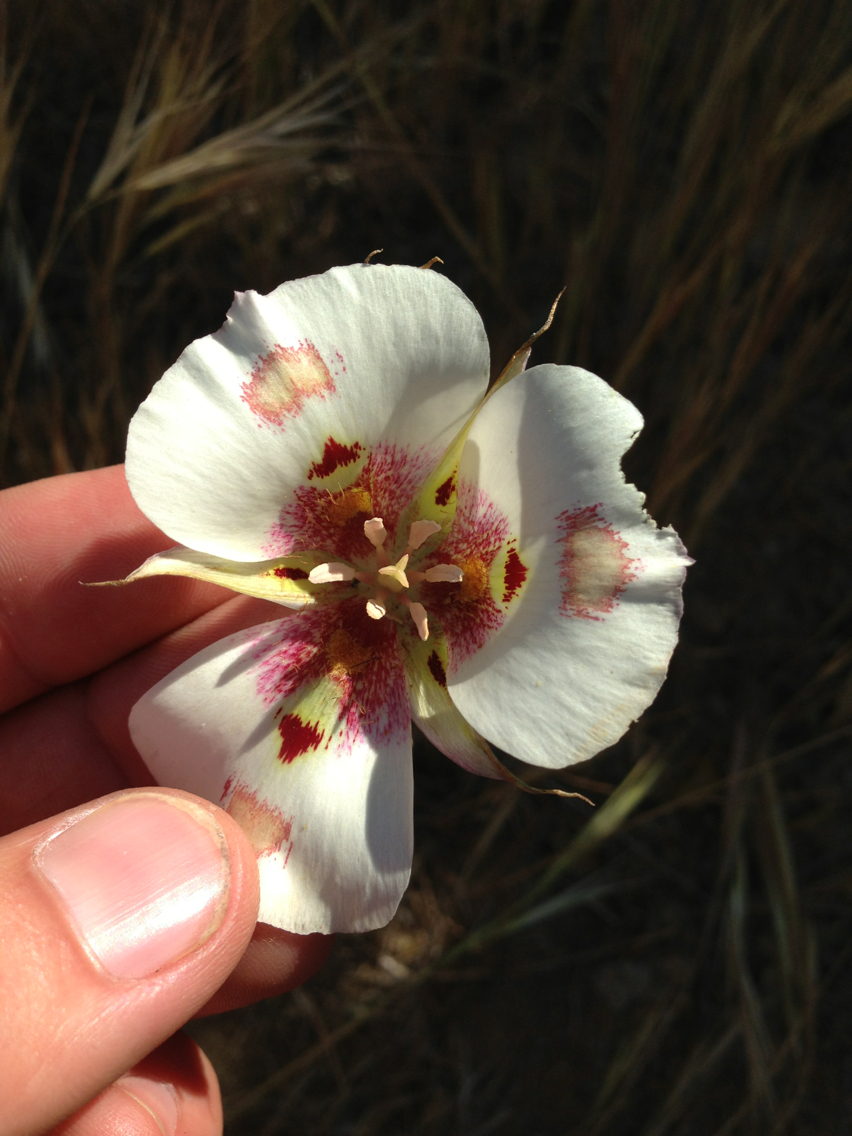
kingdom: Plantae
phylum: Tracheophyta
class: Liliopsida
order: Liliales
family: Liliaceae
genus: Calochortus
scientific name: Calochortus venustus
